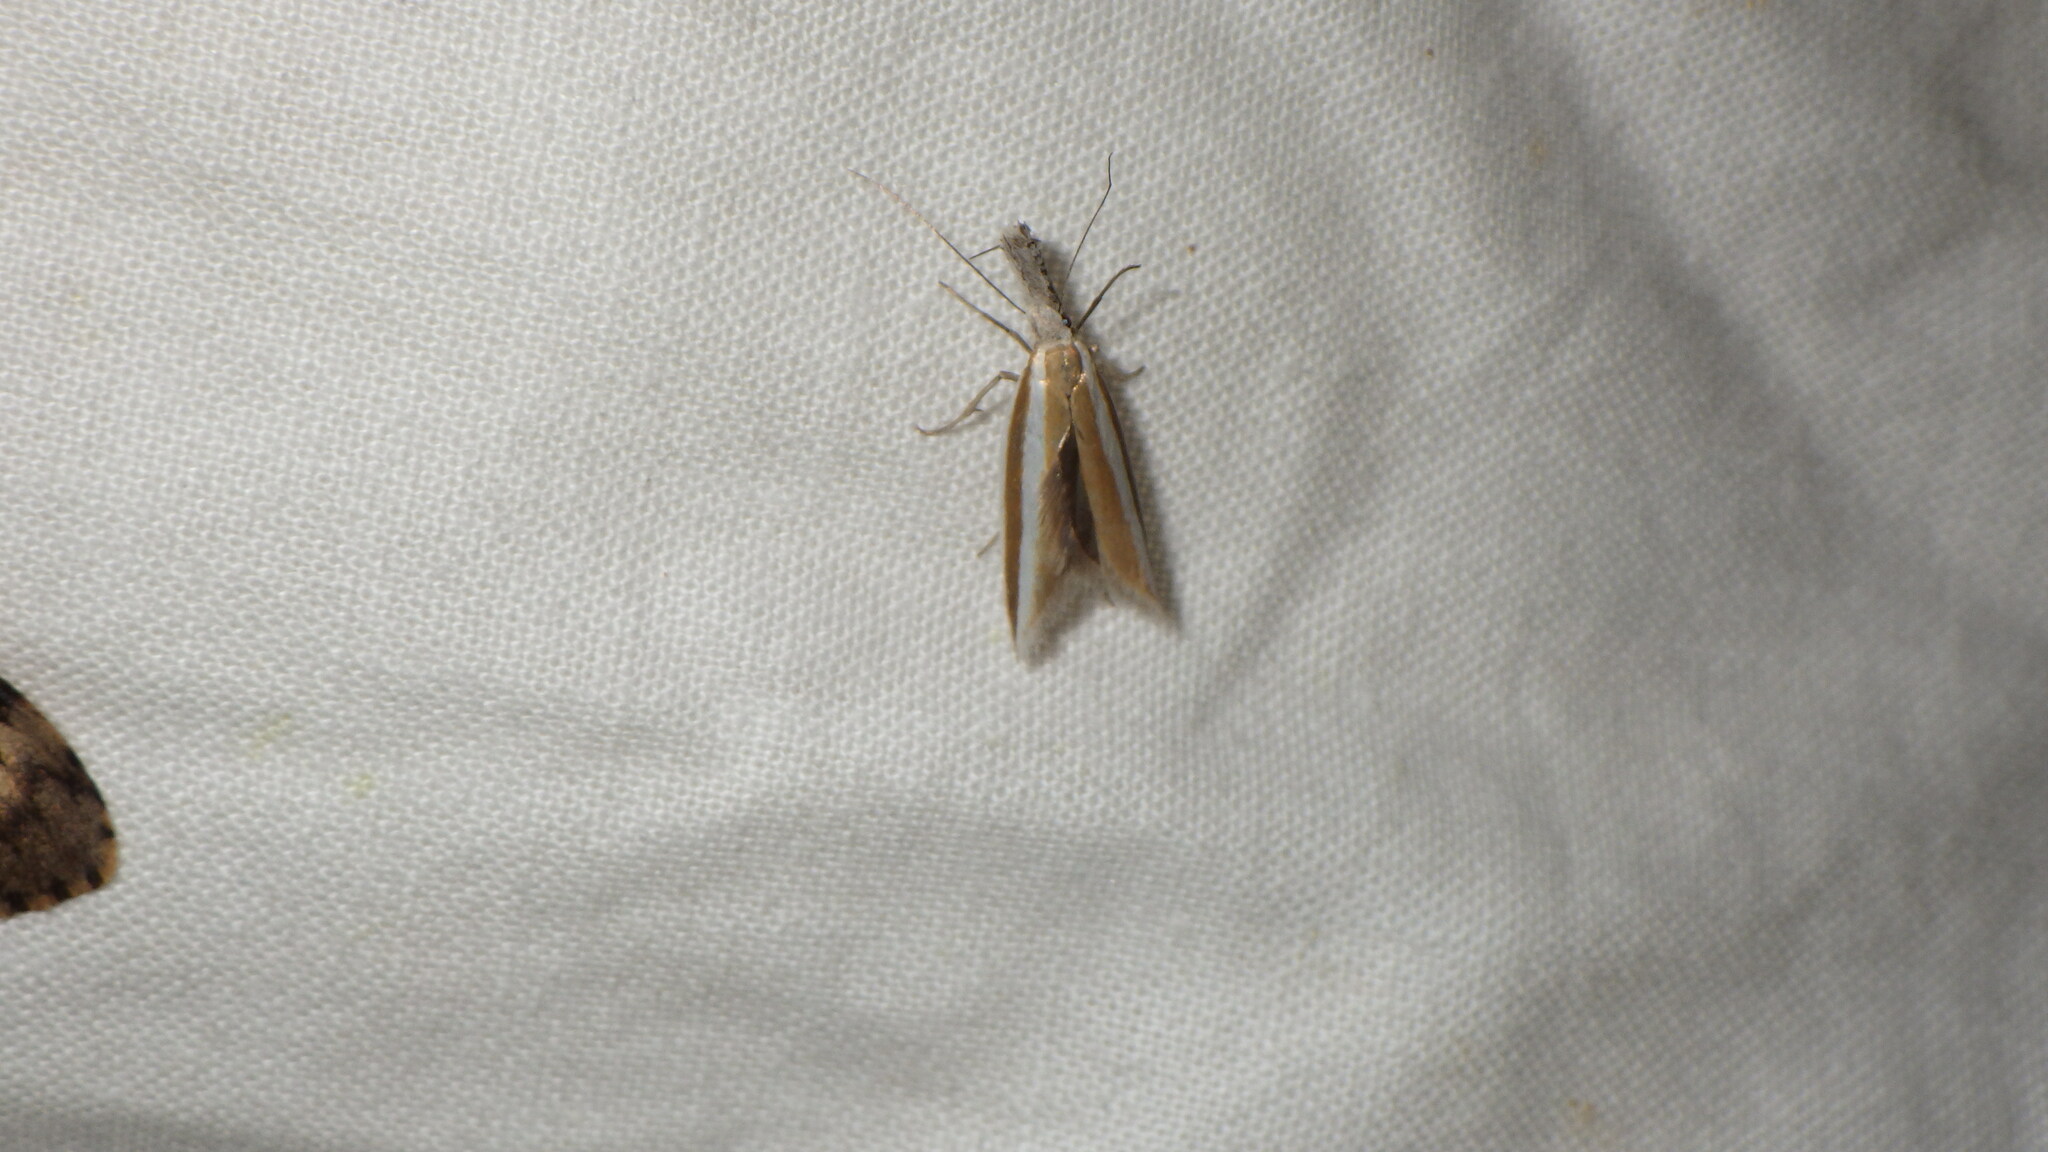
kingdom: Animalia
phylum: Arthropoda
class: Insecta
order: Lepidoptera
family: Oecophoridae
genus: Pleurota
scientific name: Pleurota aristella
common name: Southern streak
